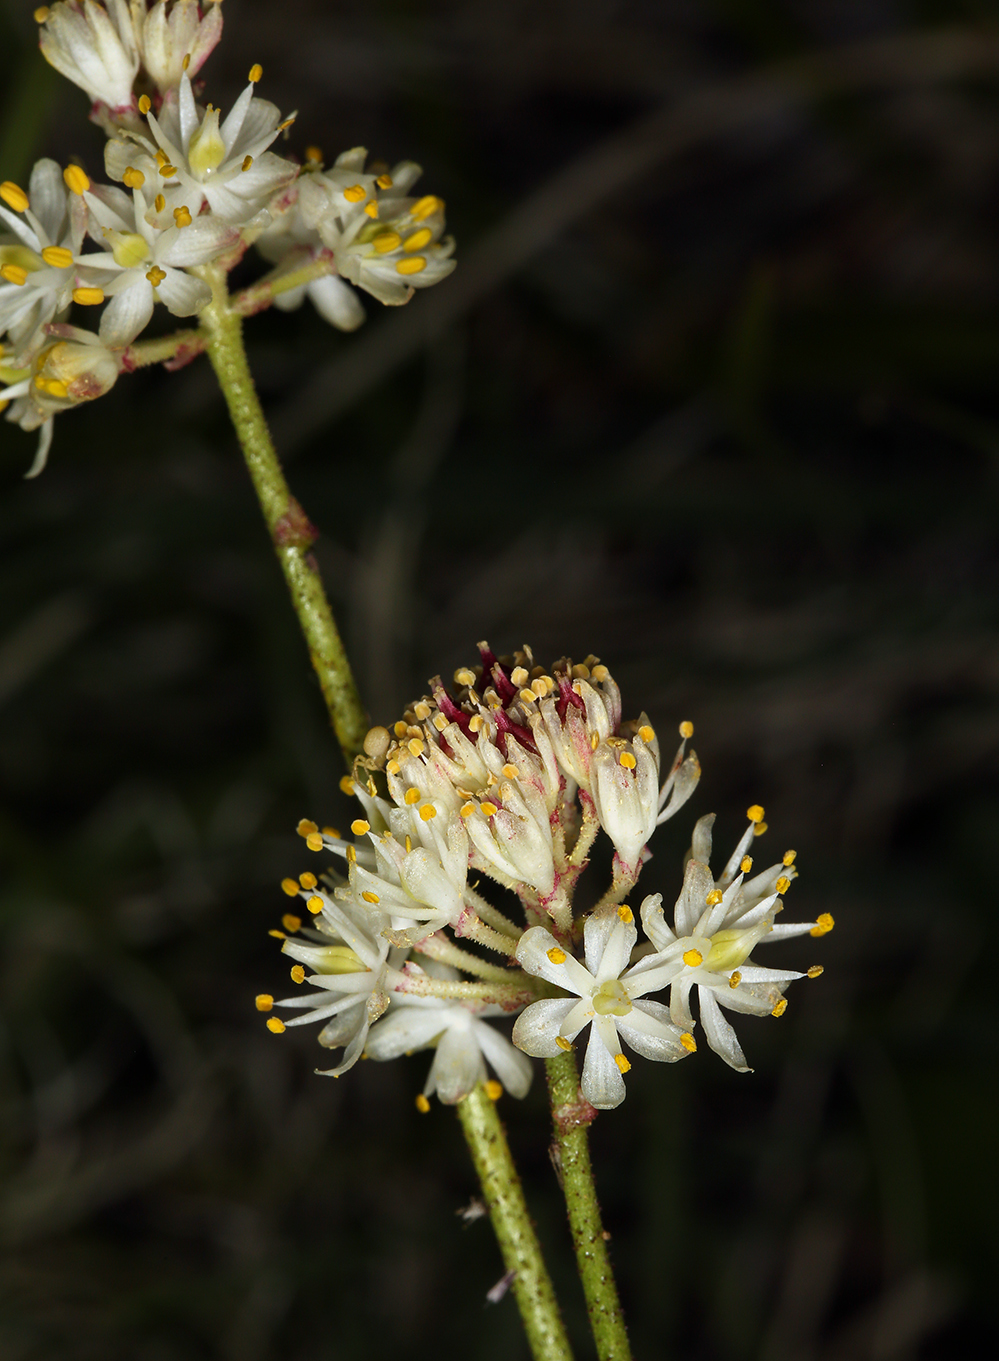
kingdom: Plantae
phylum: Tracheophyta
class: Liliopsida
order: Alismatales
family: Tofieldiaceae
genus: Triantha
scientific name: Triantha occidentalis
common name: Western false asphodel
